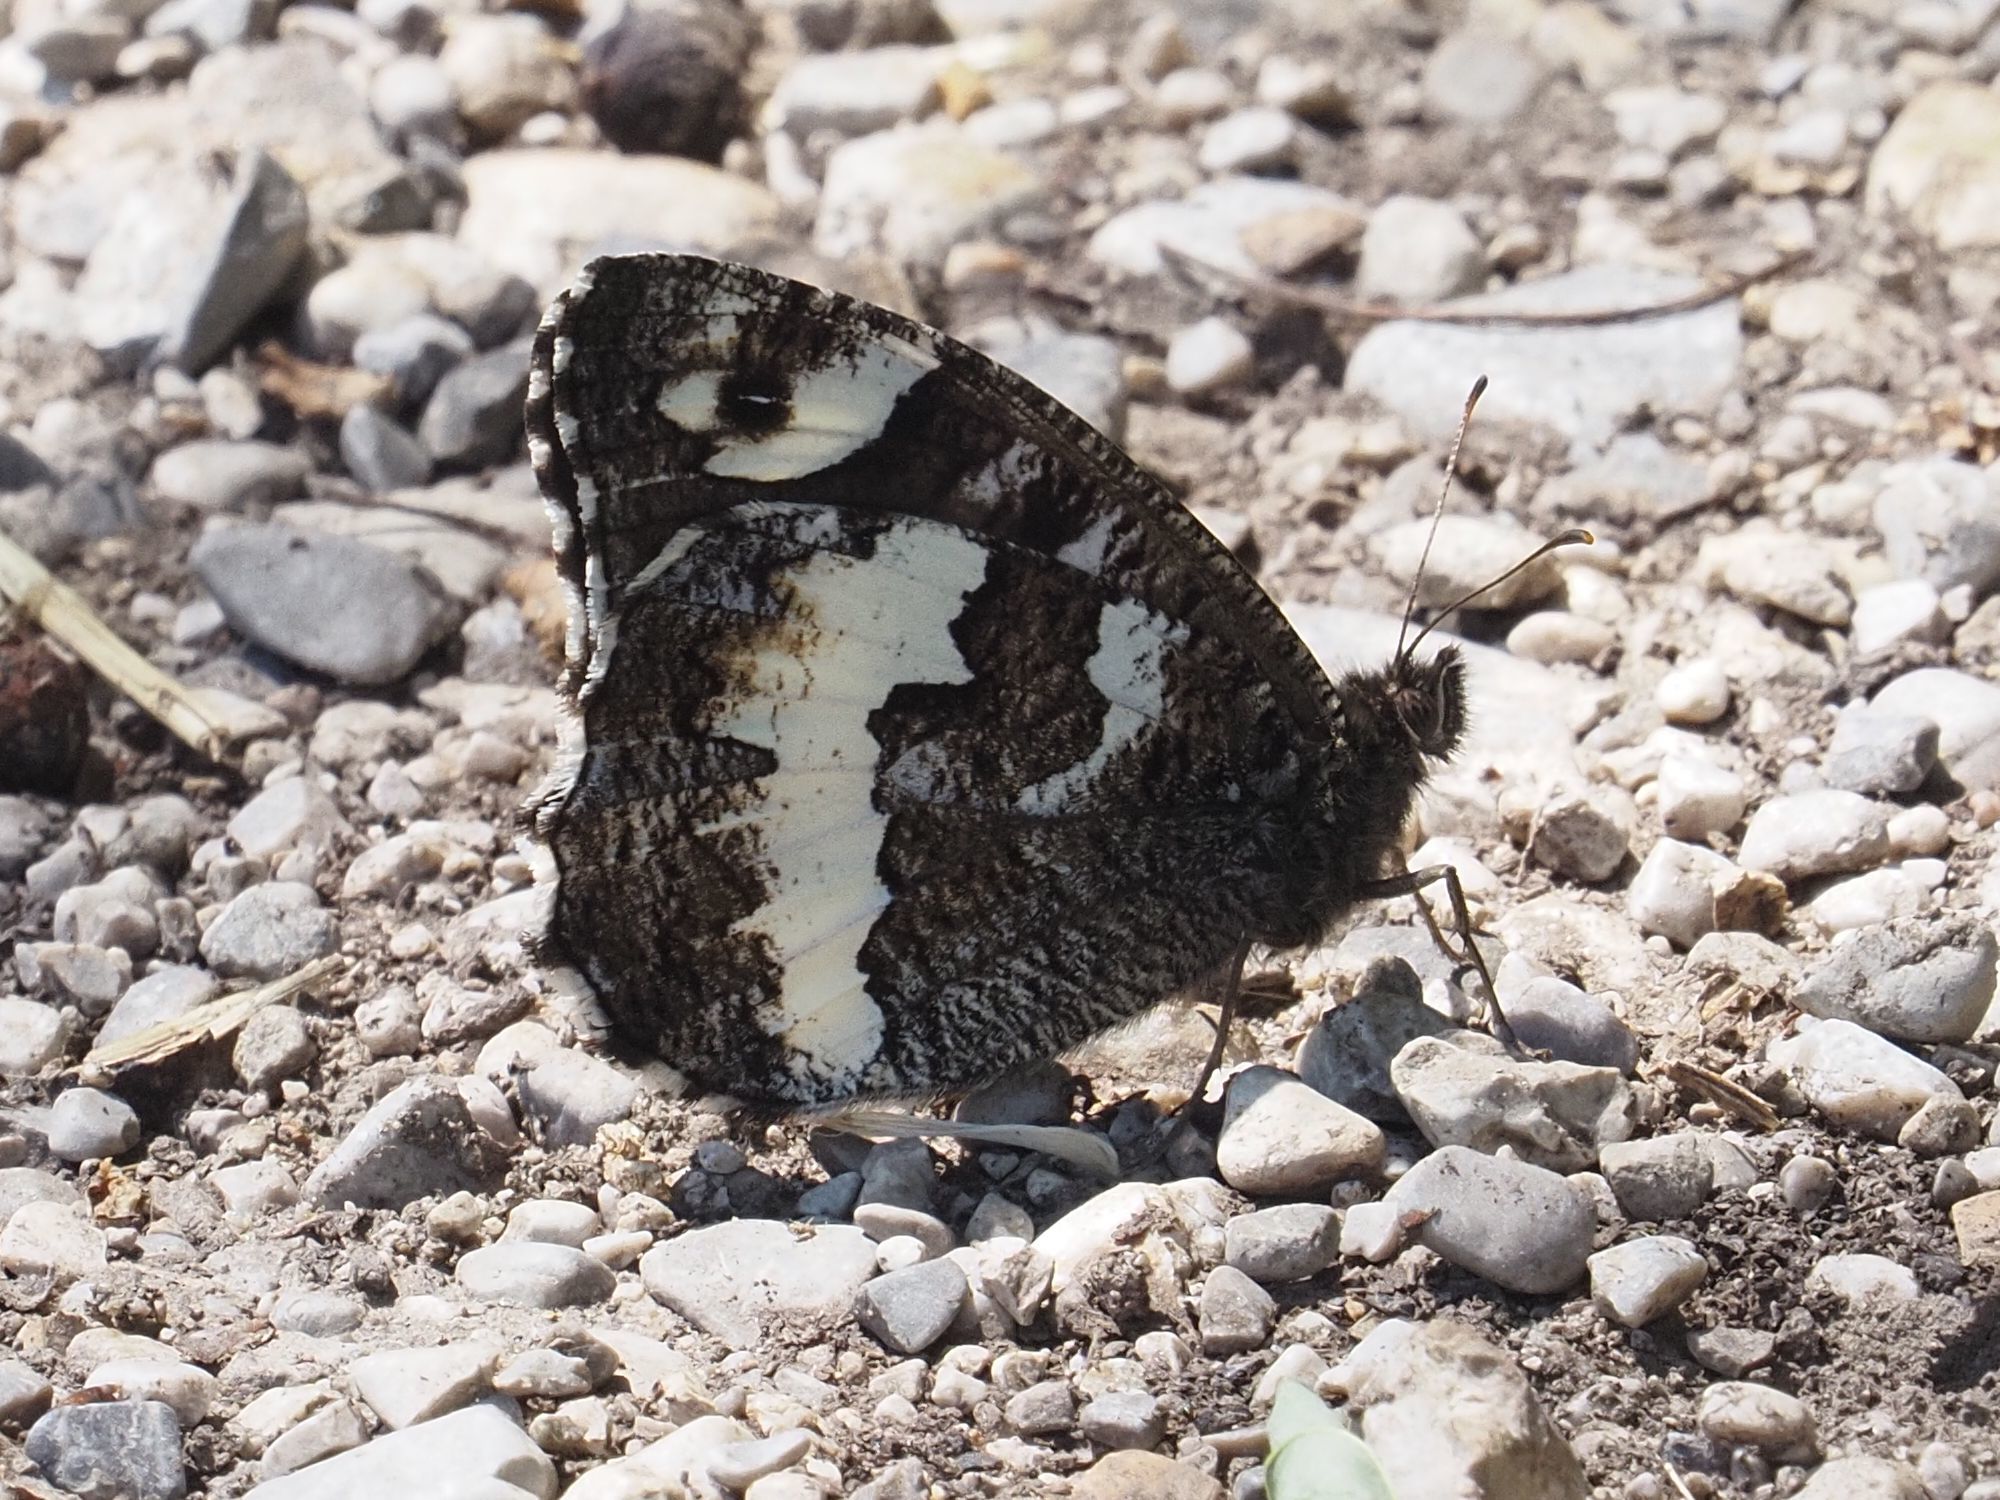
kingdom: Animalia
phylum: Arthropoda
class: Insecta
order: Lepidoptera
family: Lycaenidae
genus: Loweia
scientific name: Loweia tityrus
